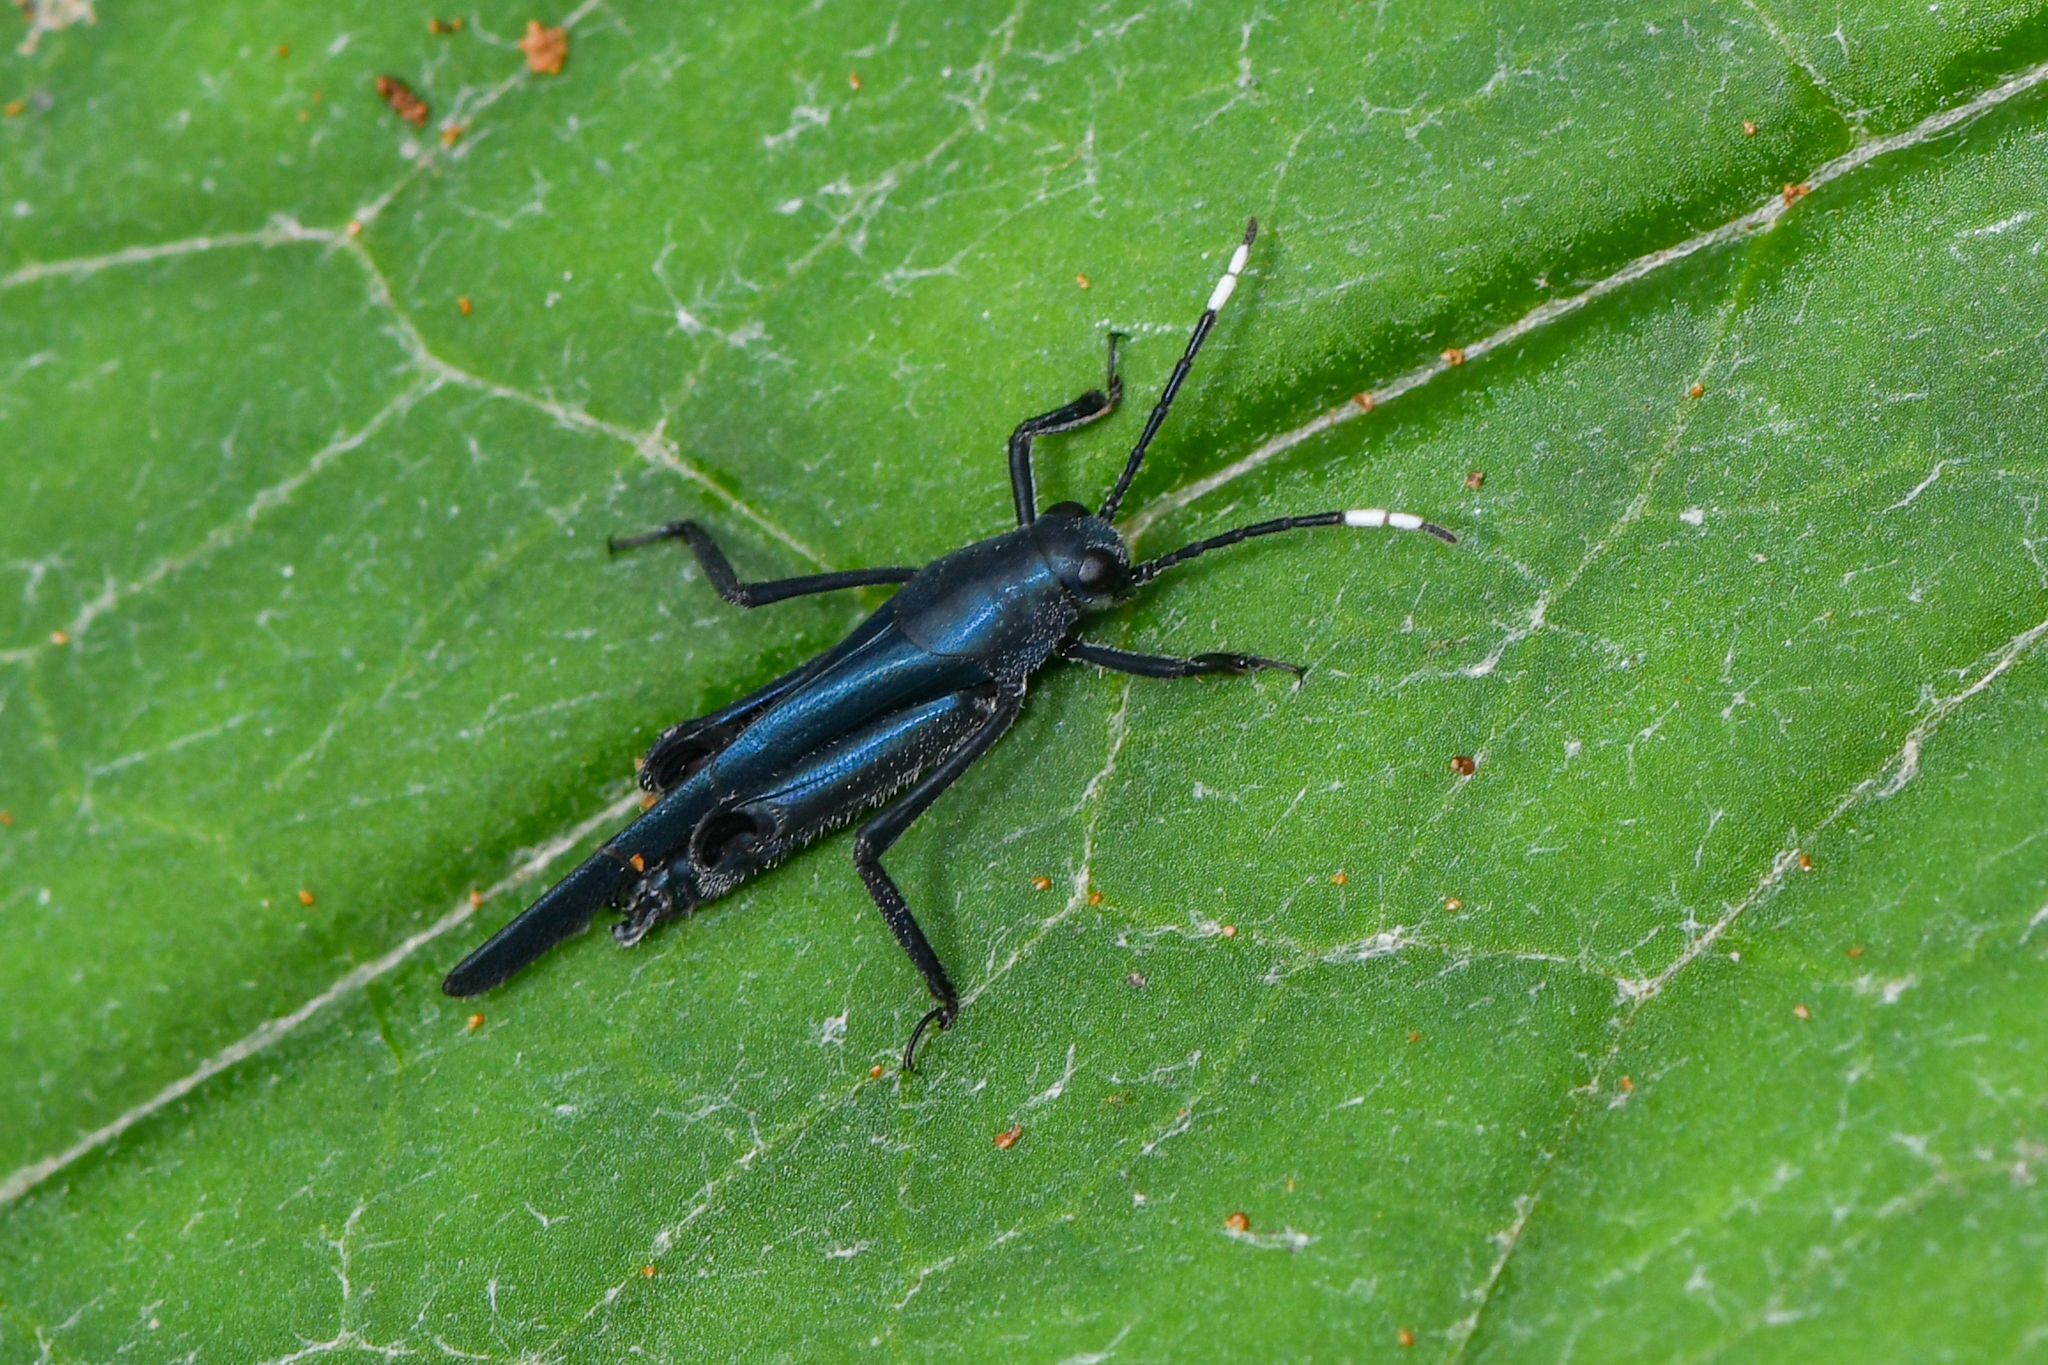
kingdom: Animalia
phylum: Arthropoda
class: Insecta
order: Orthoptera
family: Ripipterygidae
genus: Ripipteryx
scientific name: Ripipteryx forceps
